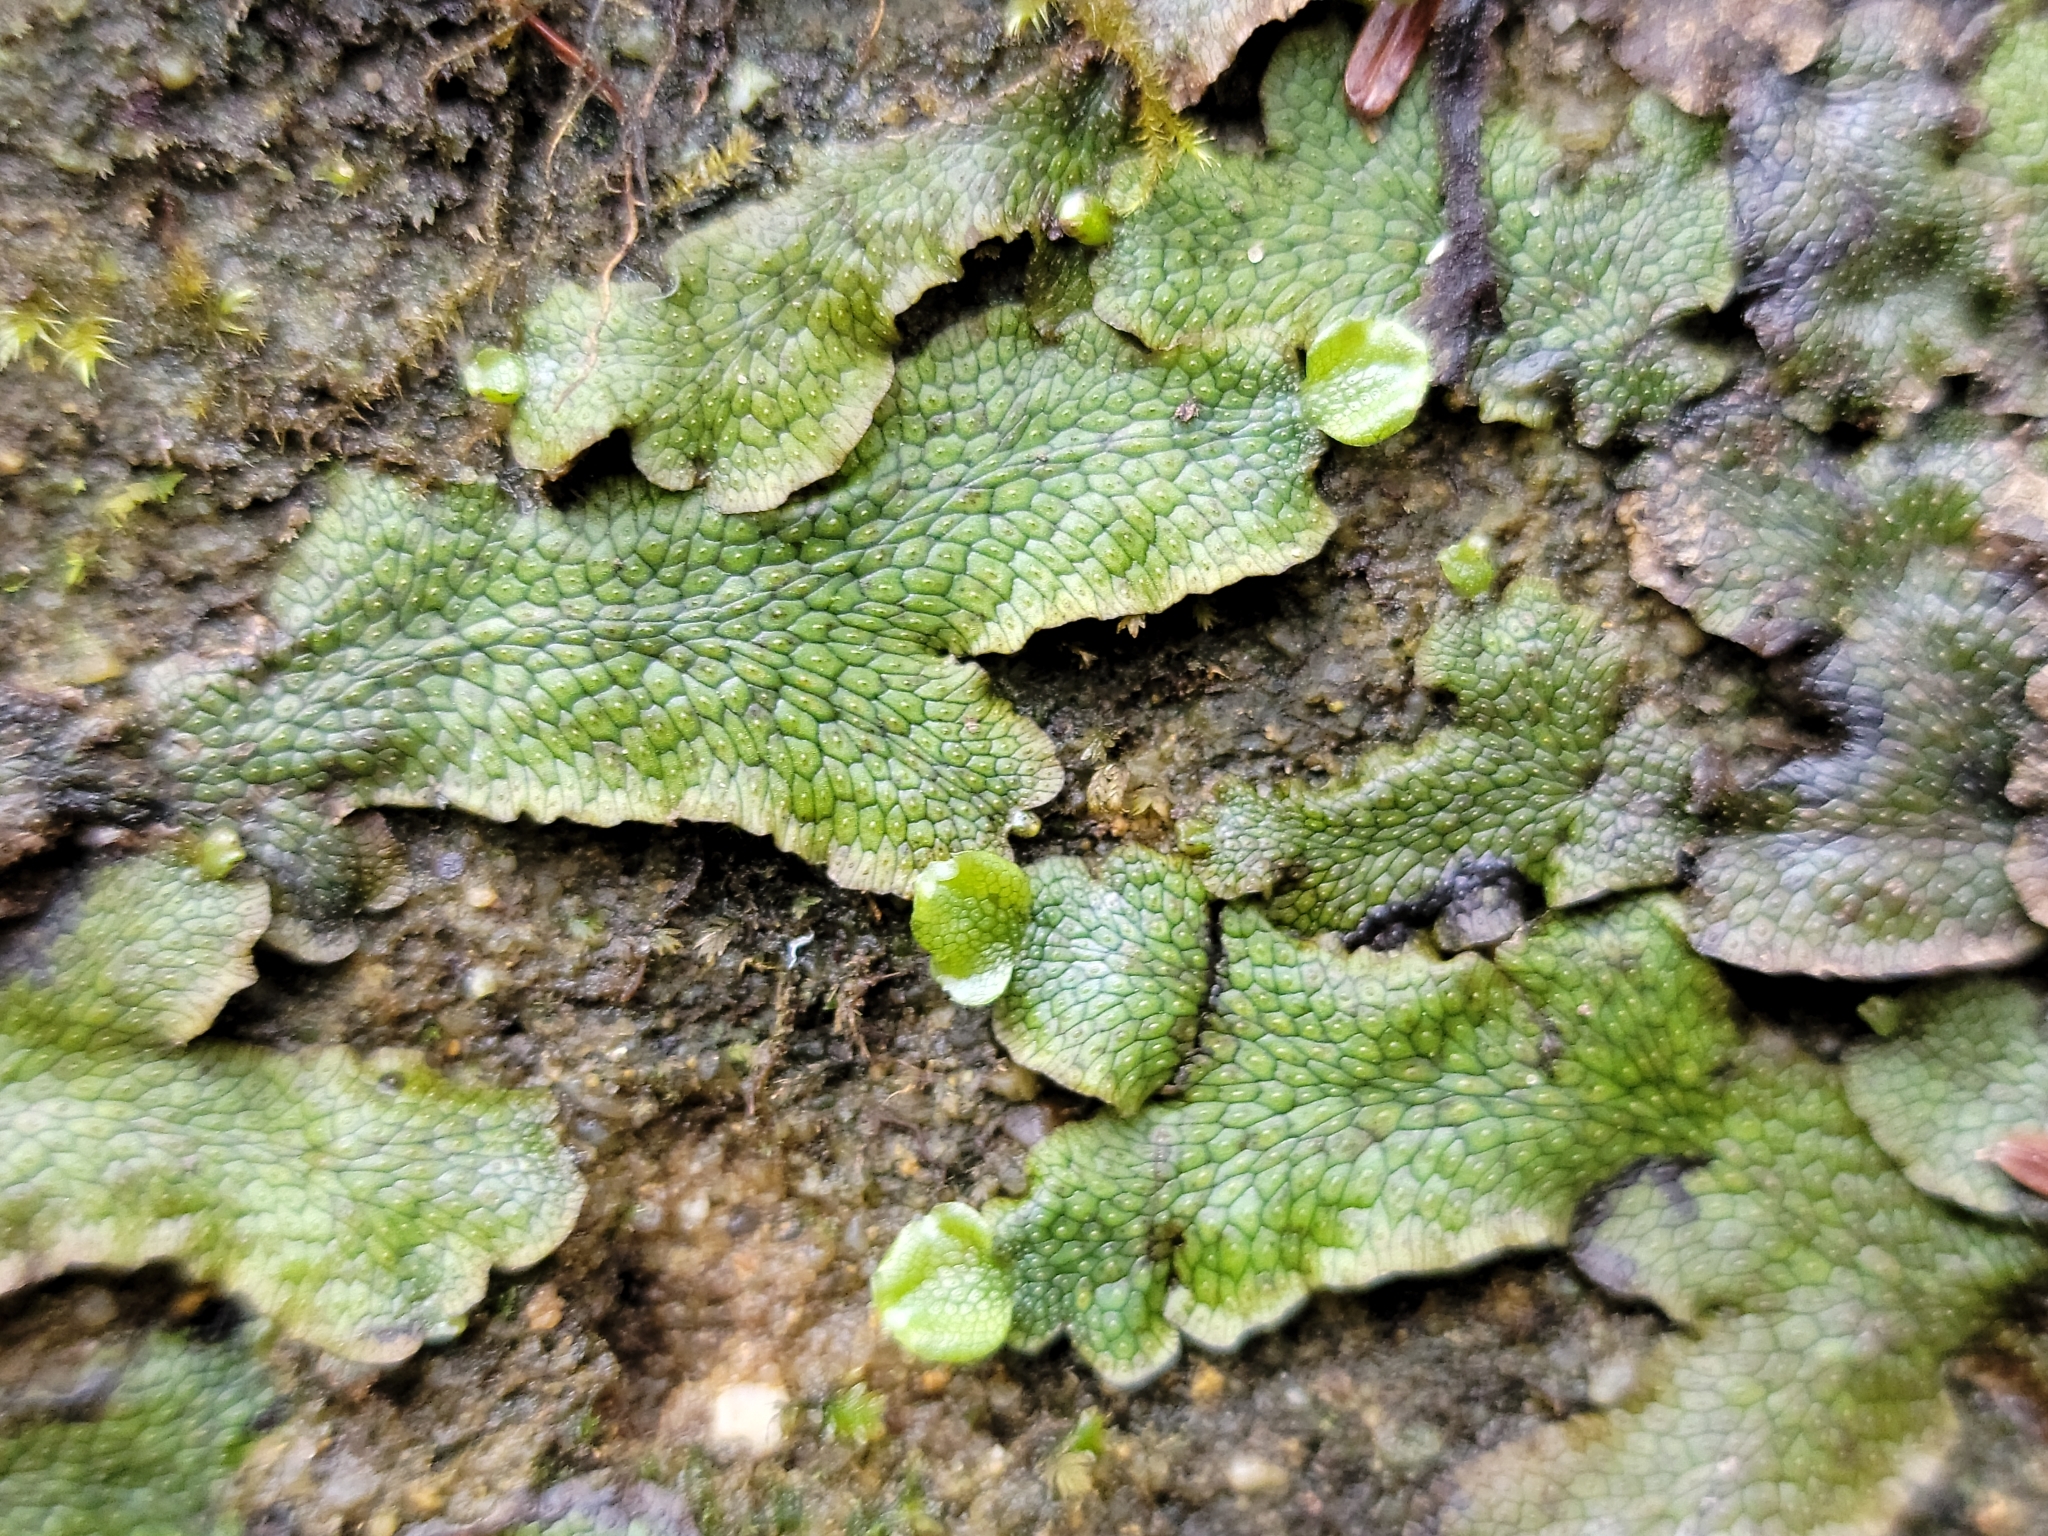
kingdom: Plantae
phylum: Marchantiophyta
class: Marchantiopsida
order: Marchantiales
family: Conocephalaceae
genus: Conocephalum
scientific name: Conocephalum salebrosum
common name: Cat-tongue liverwort
